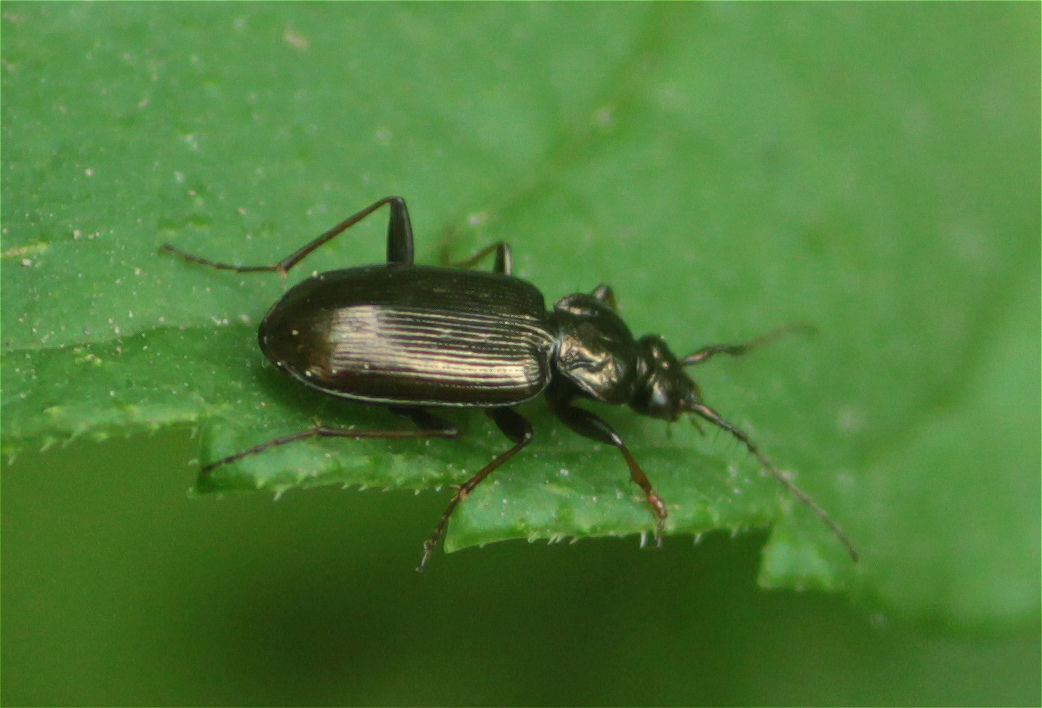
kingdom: Animalia
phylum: Arthropoda
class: Insecta
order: Coleoptera
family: Carabidae
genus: Loricera
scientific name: Loricera pilicornis
